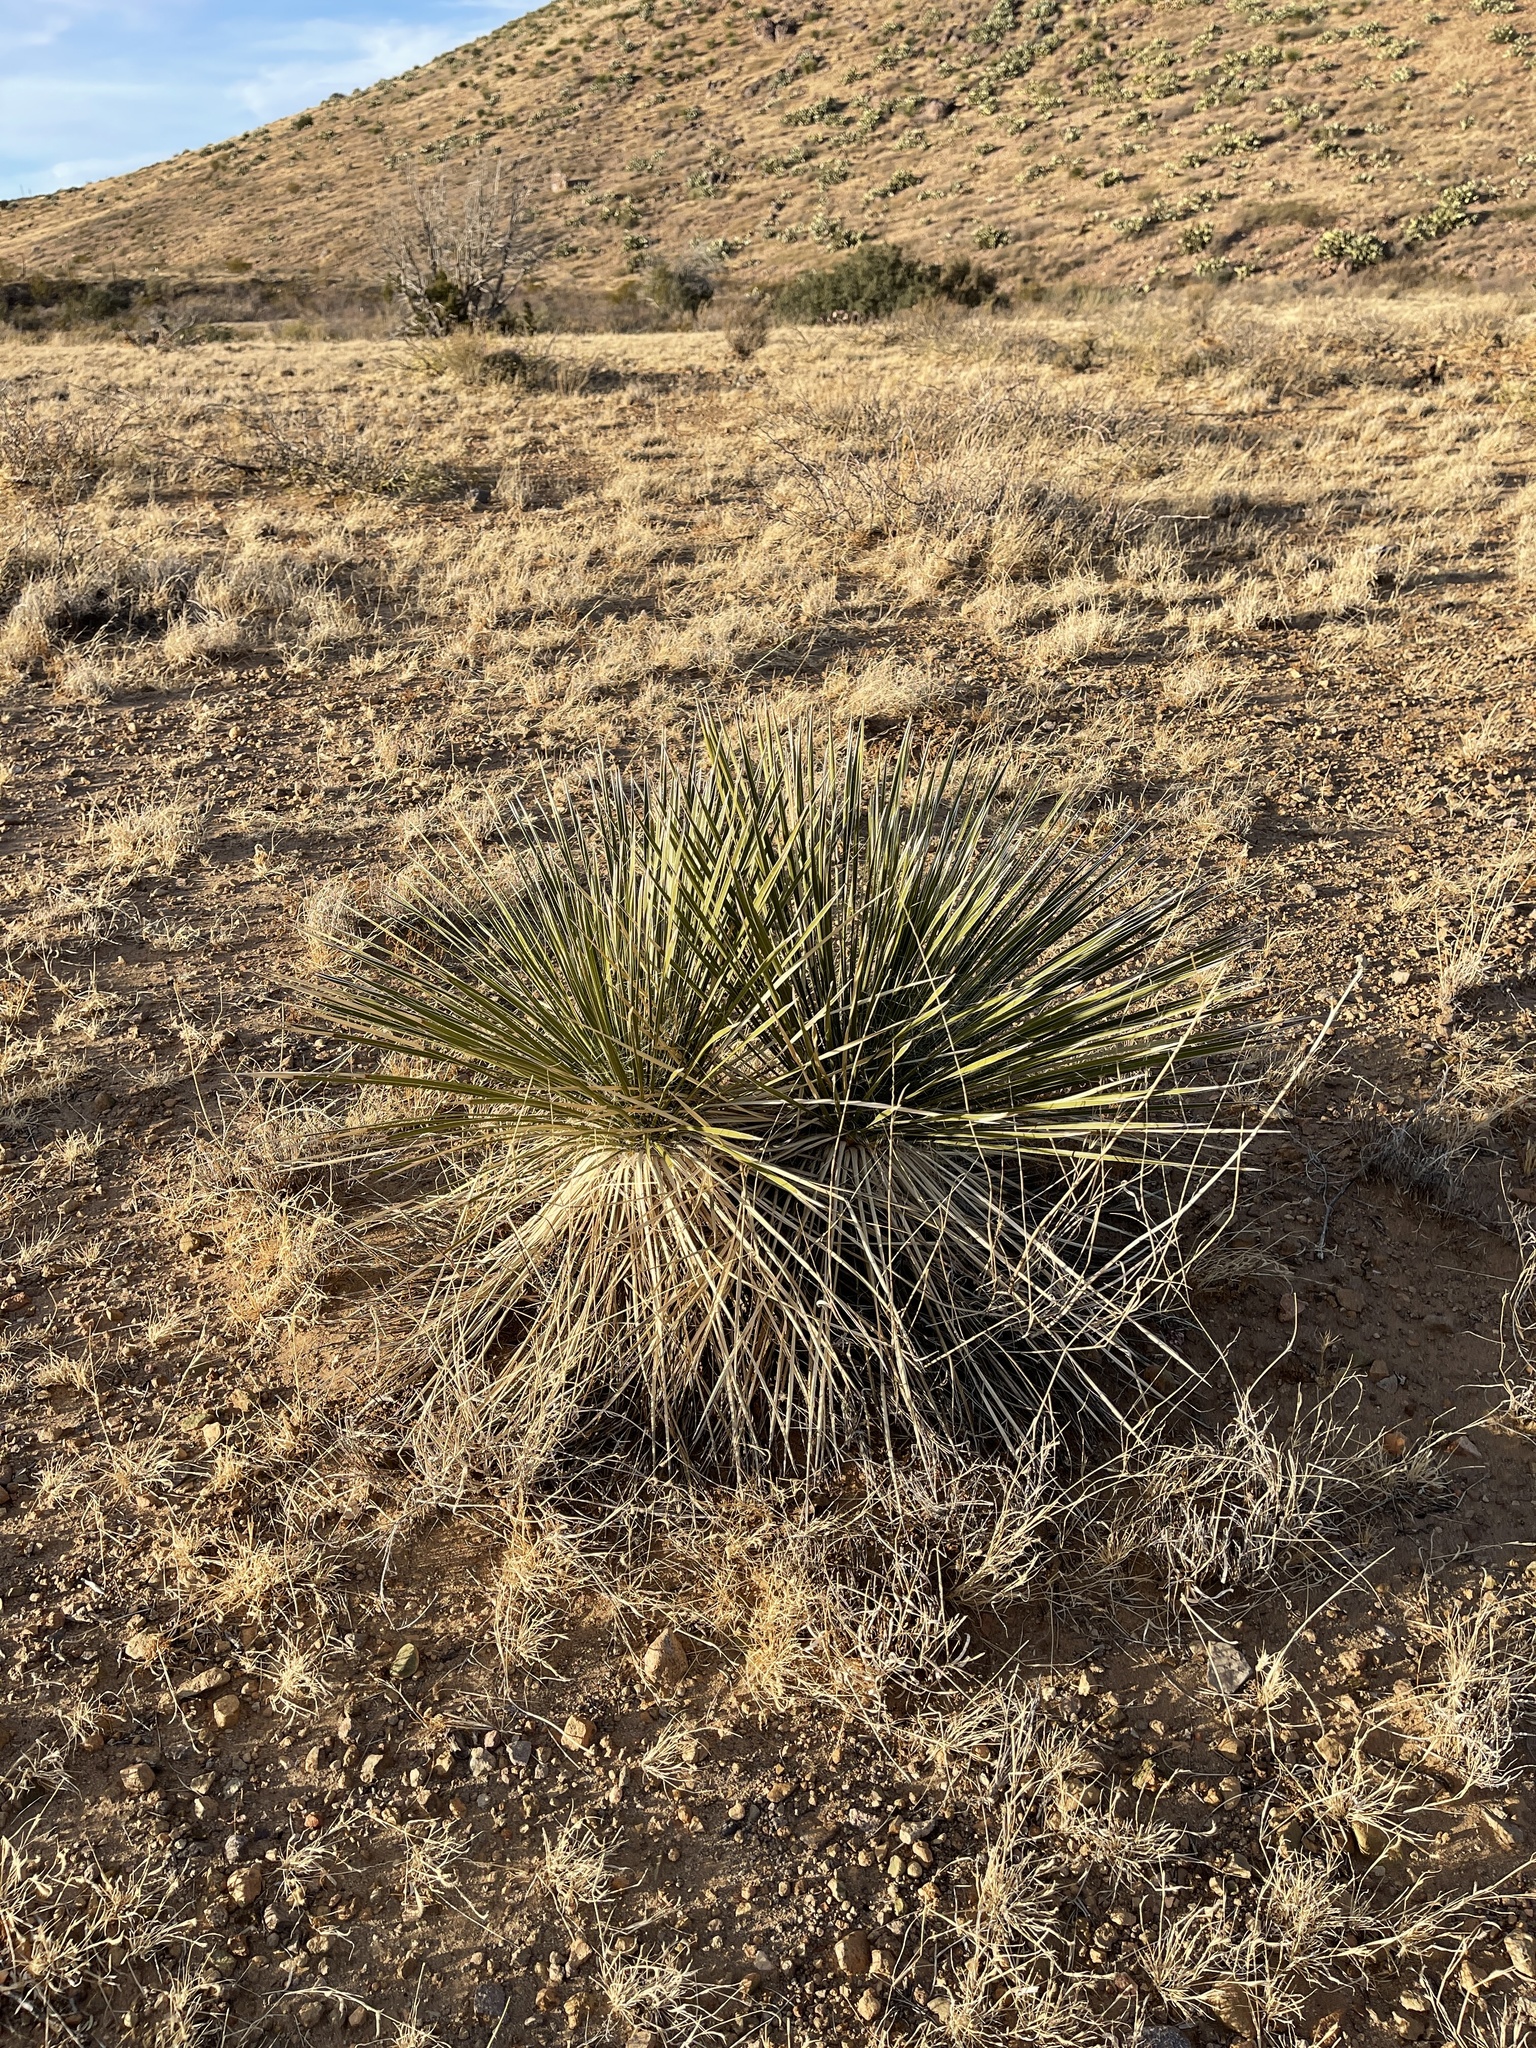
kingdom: Plantae
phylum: Tracheophyta
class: Liliopsida
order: Asparagales
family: Asparagaceae
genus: Yucca
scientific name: Yucca elata
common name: Palmella
